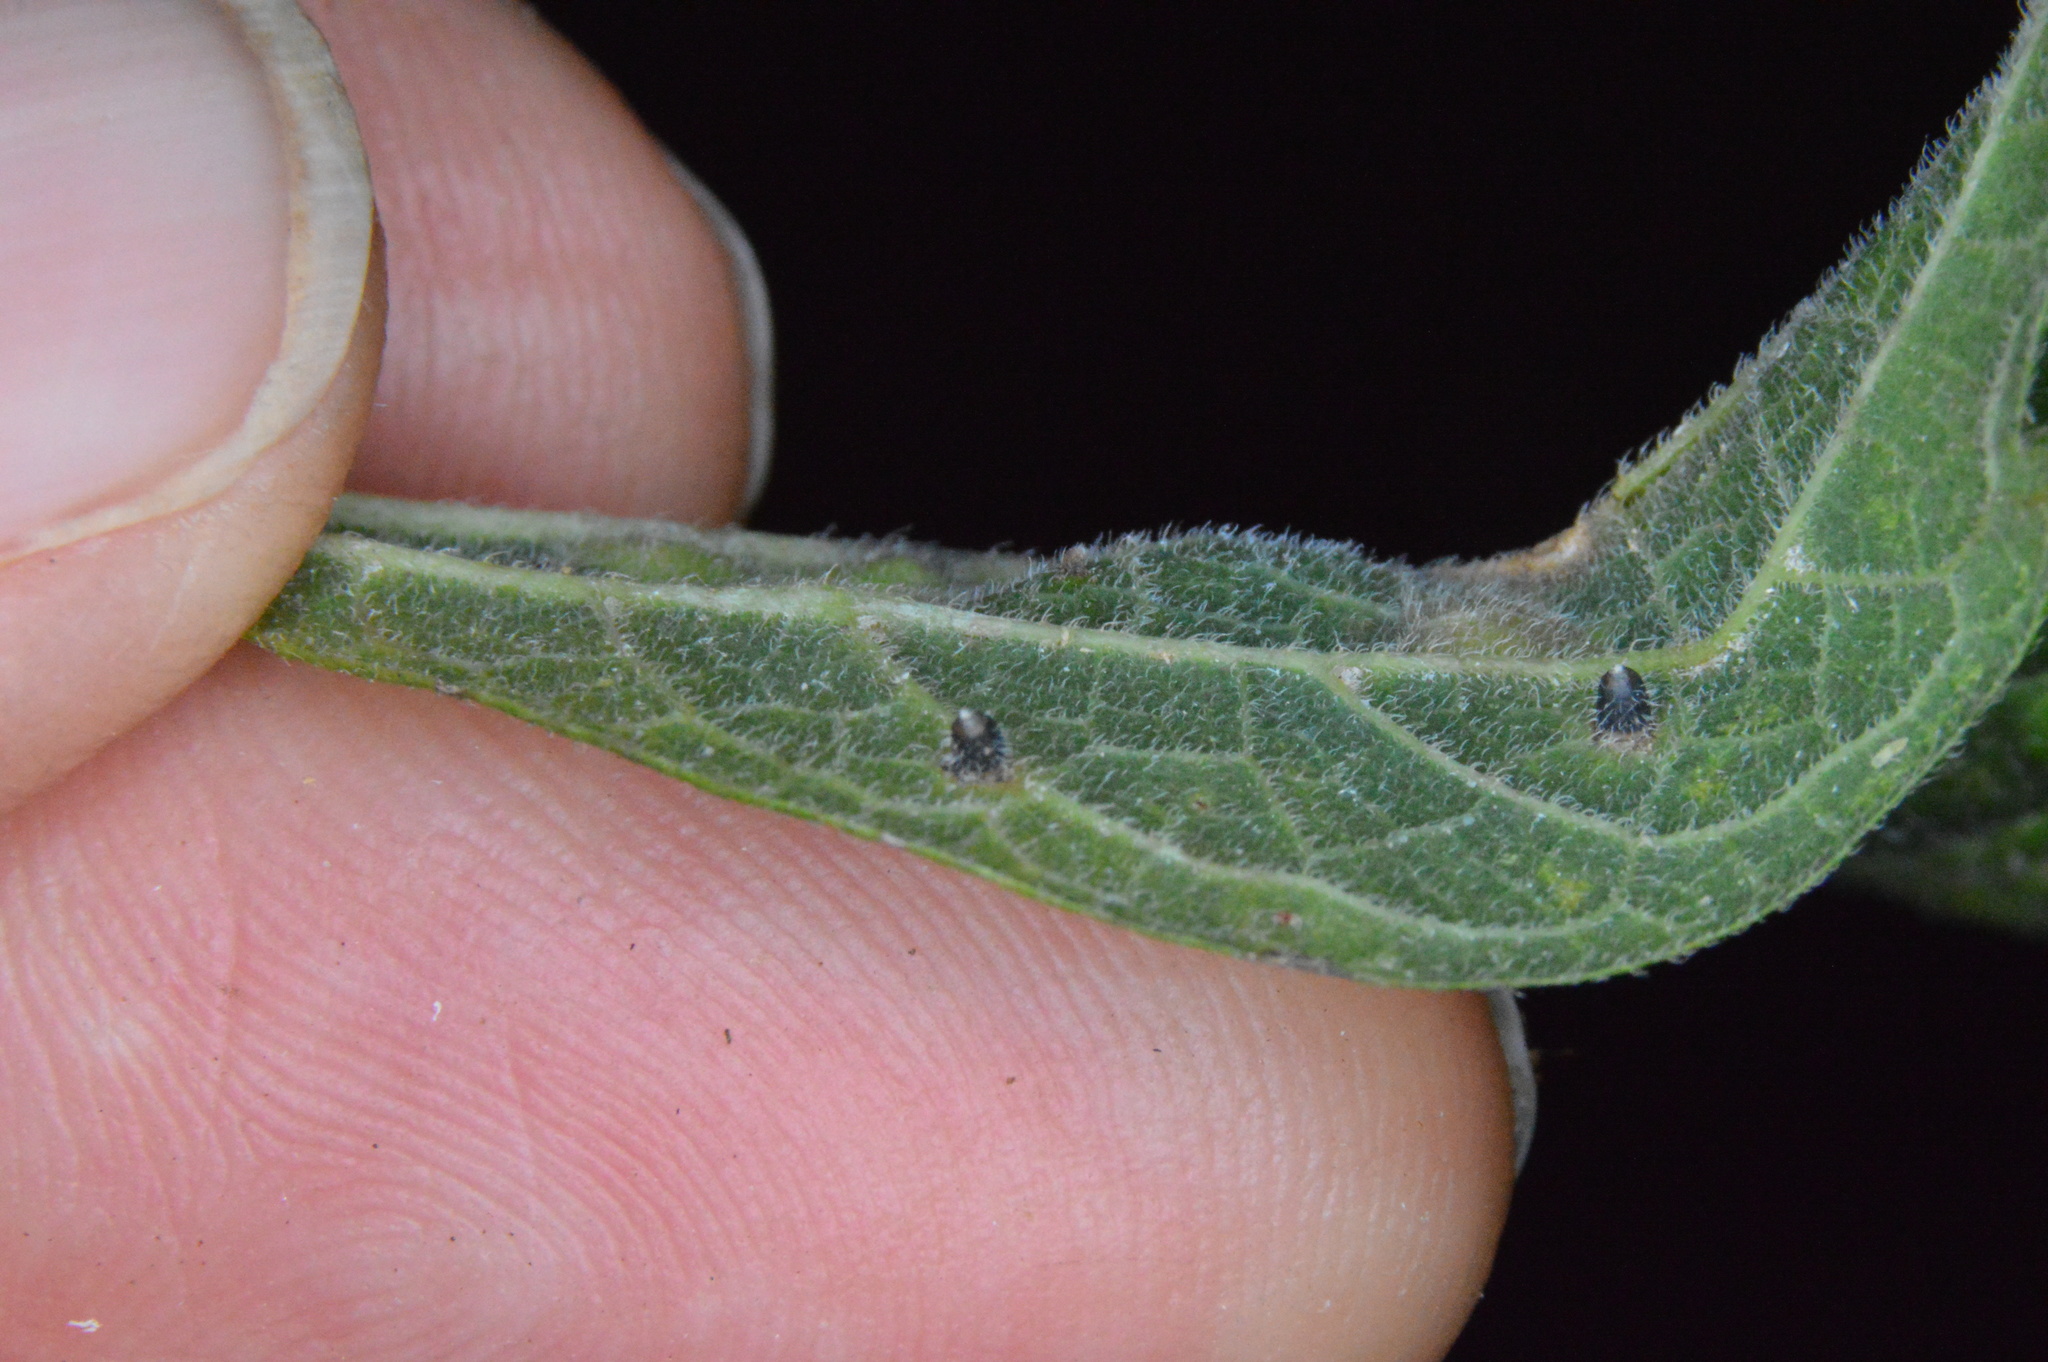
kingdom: Animalia
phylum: Arthropoda
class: Insecta
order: Diptera
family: Cecidomyiidae
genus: Celticecis
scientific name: Celticecis cupiformis
